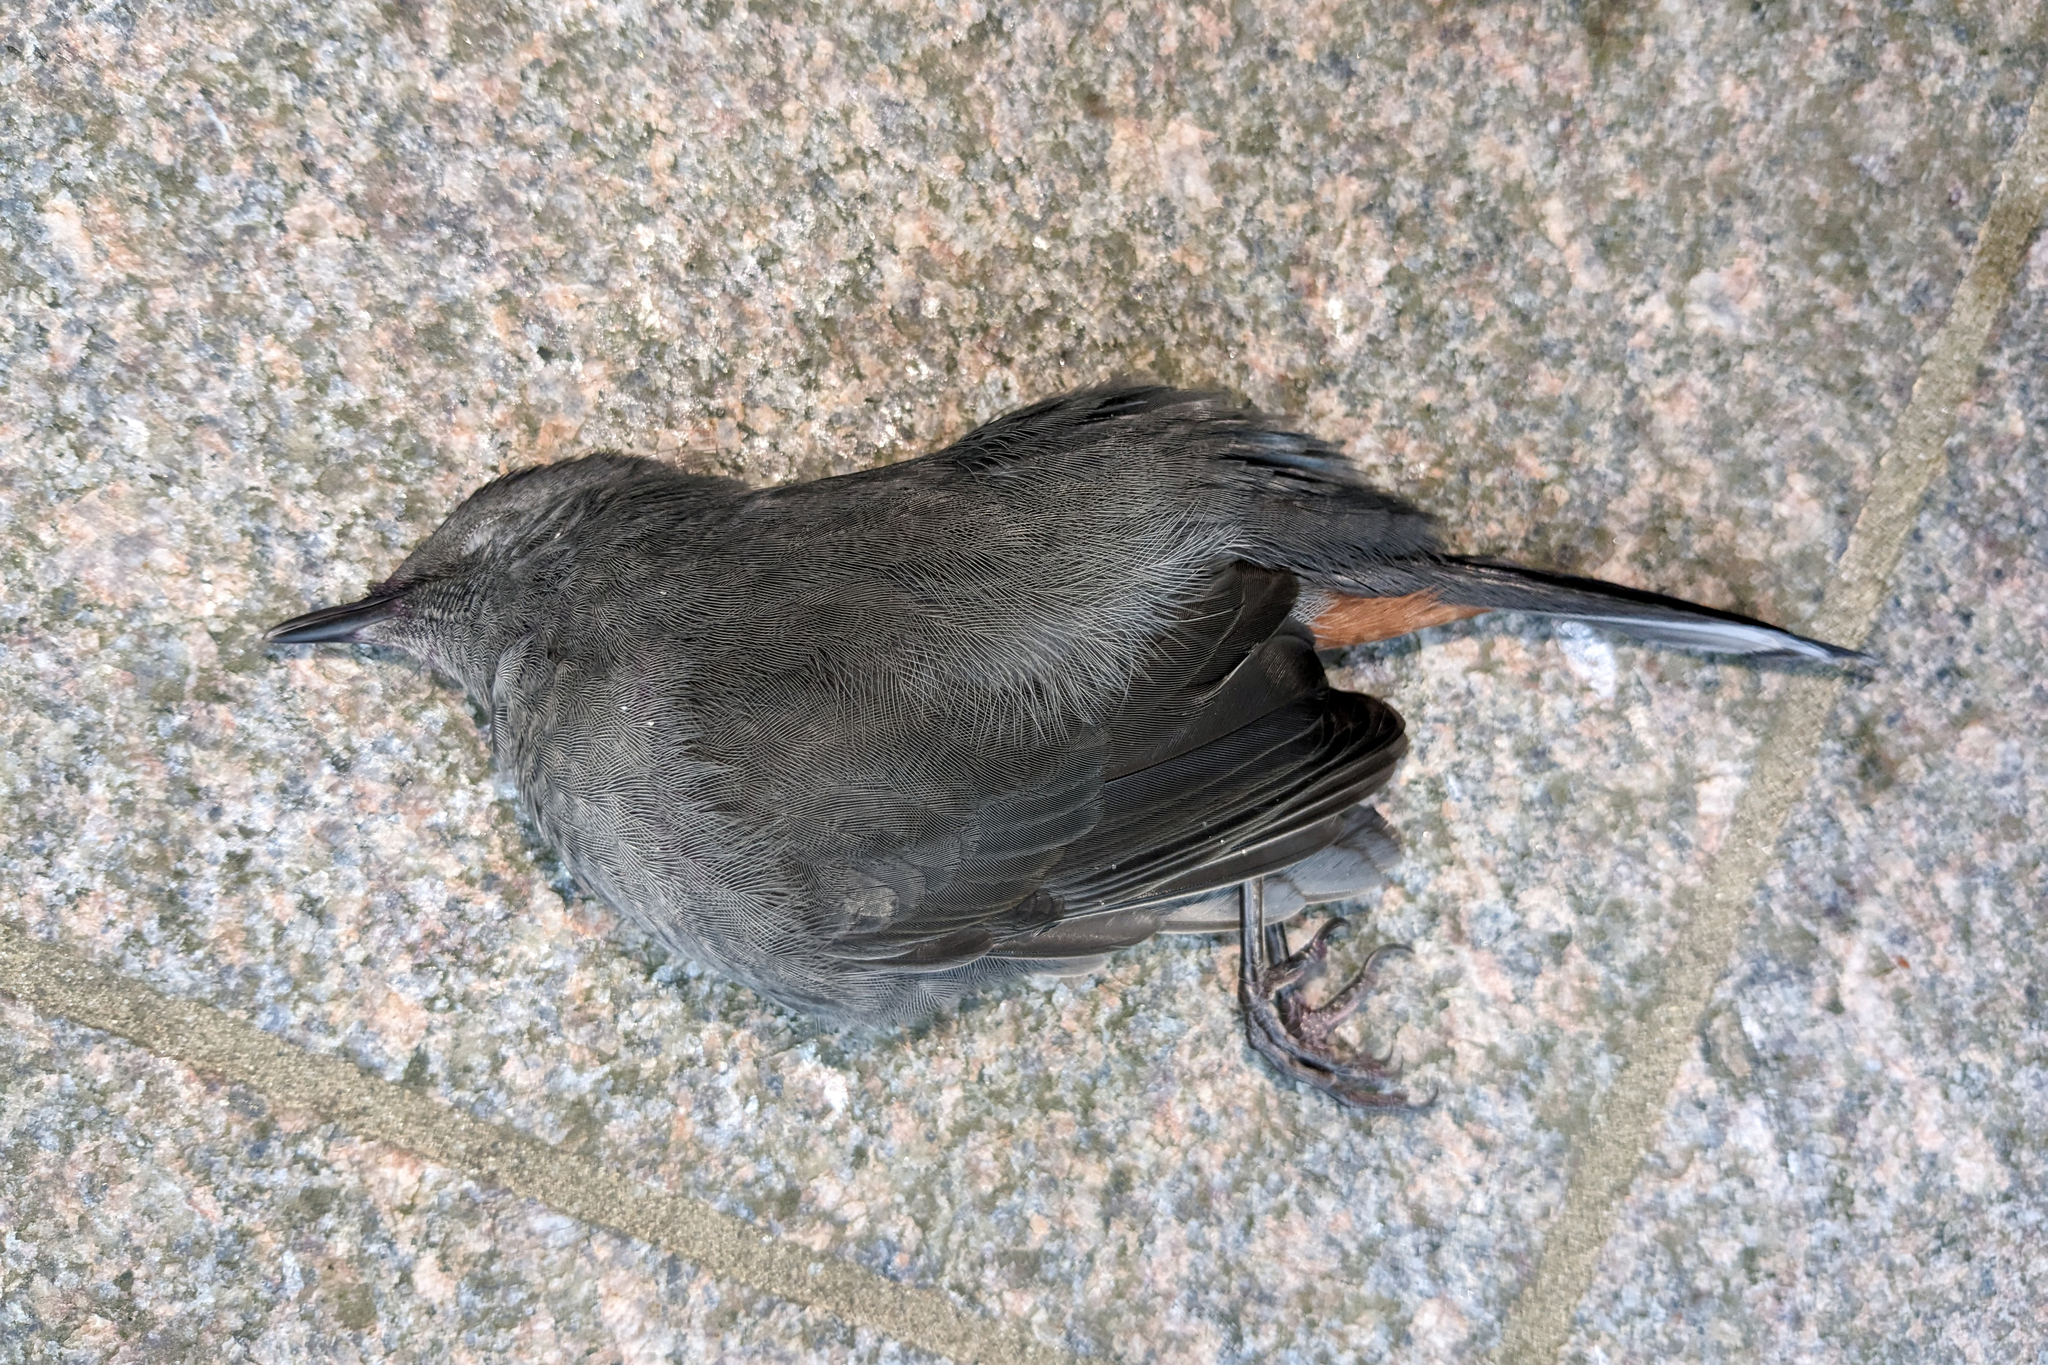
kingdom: Animalia
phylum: Chordata
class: Aves
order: Passeriformes
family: Mimidae
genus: Dumetella
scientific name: Dumetella carolinensis
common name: Gray catbird
